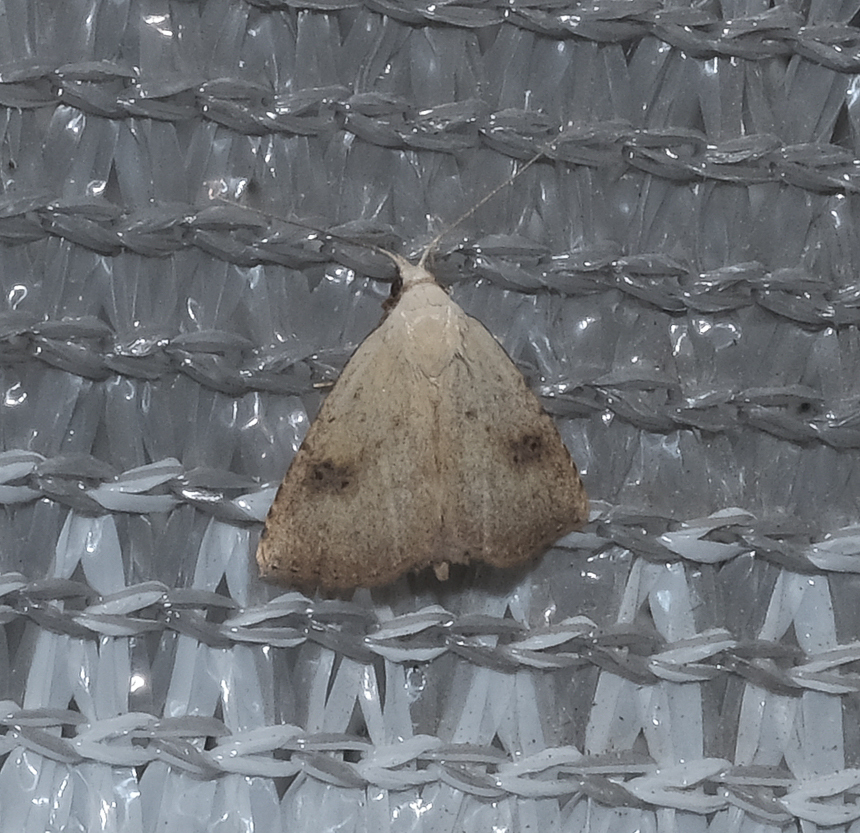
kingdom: Animalia
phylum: Arthropoda
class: Insecta
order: Lepidoptera
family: Erebidae
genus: Rivula
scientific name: Rivula sericealis
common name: Straw dot
